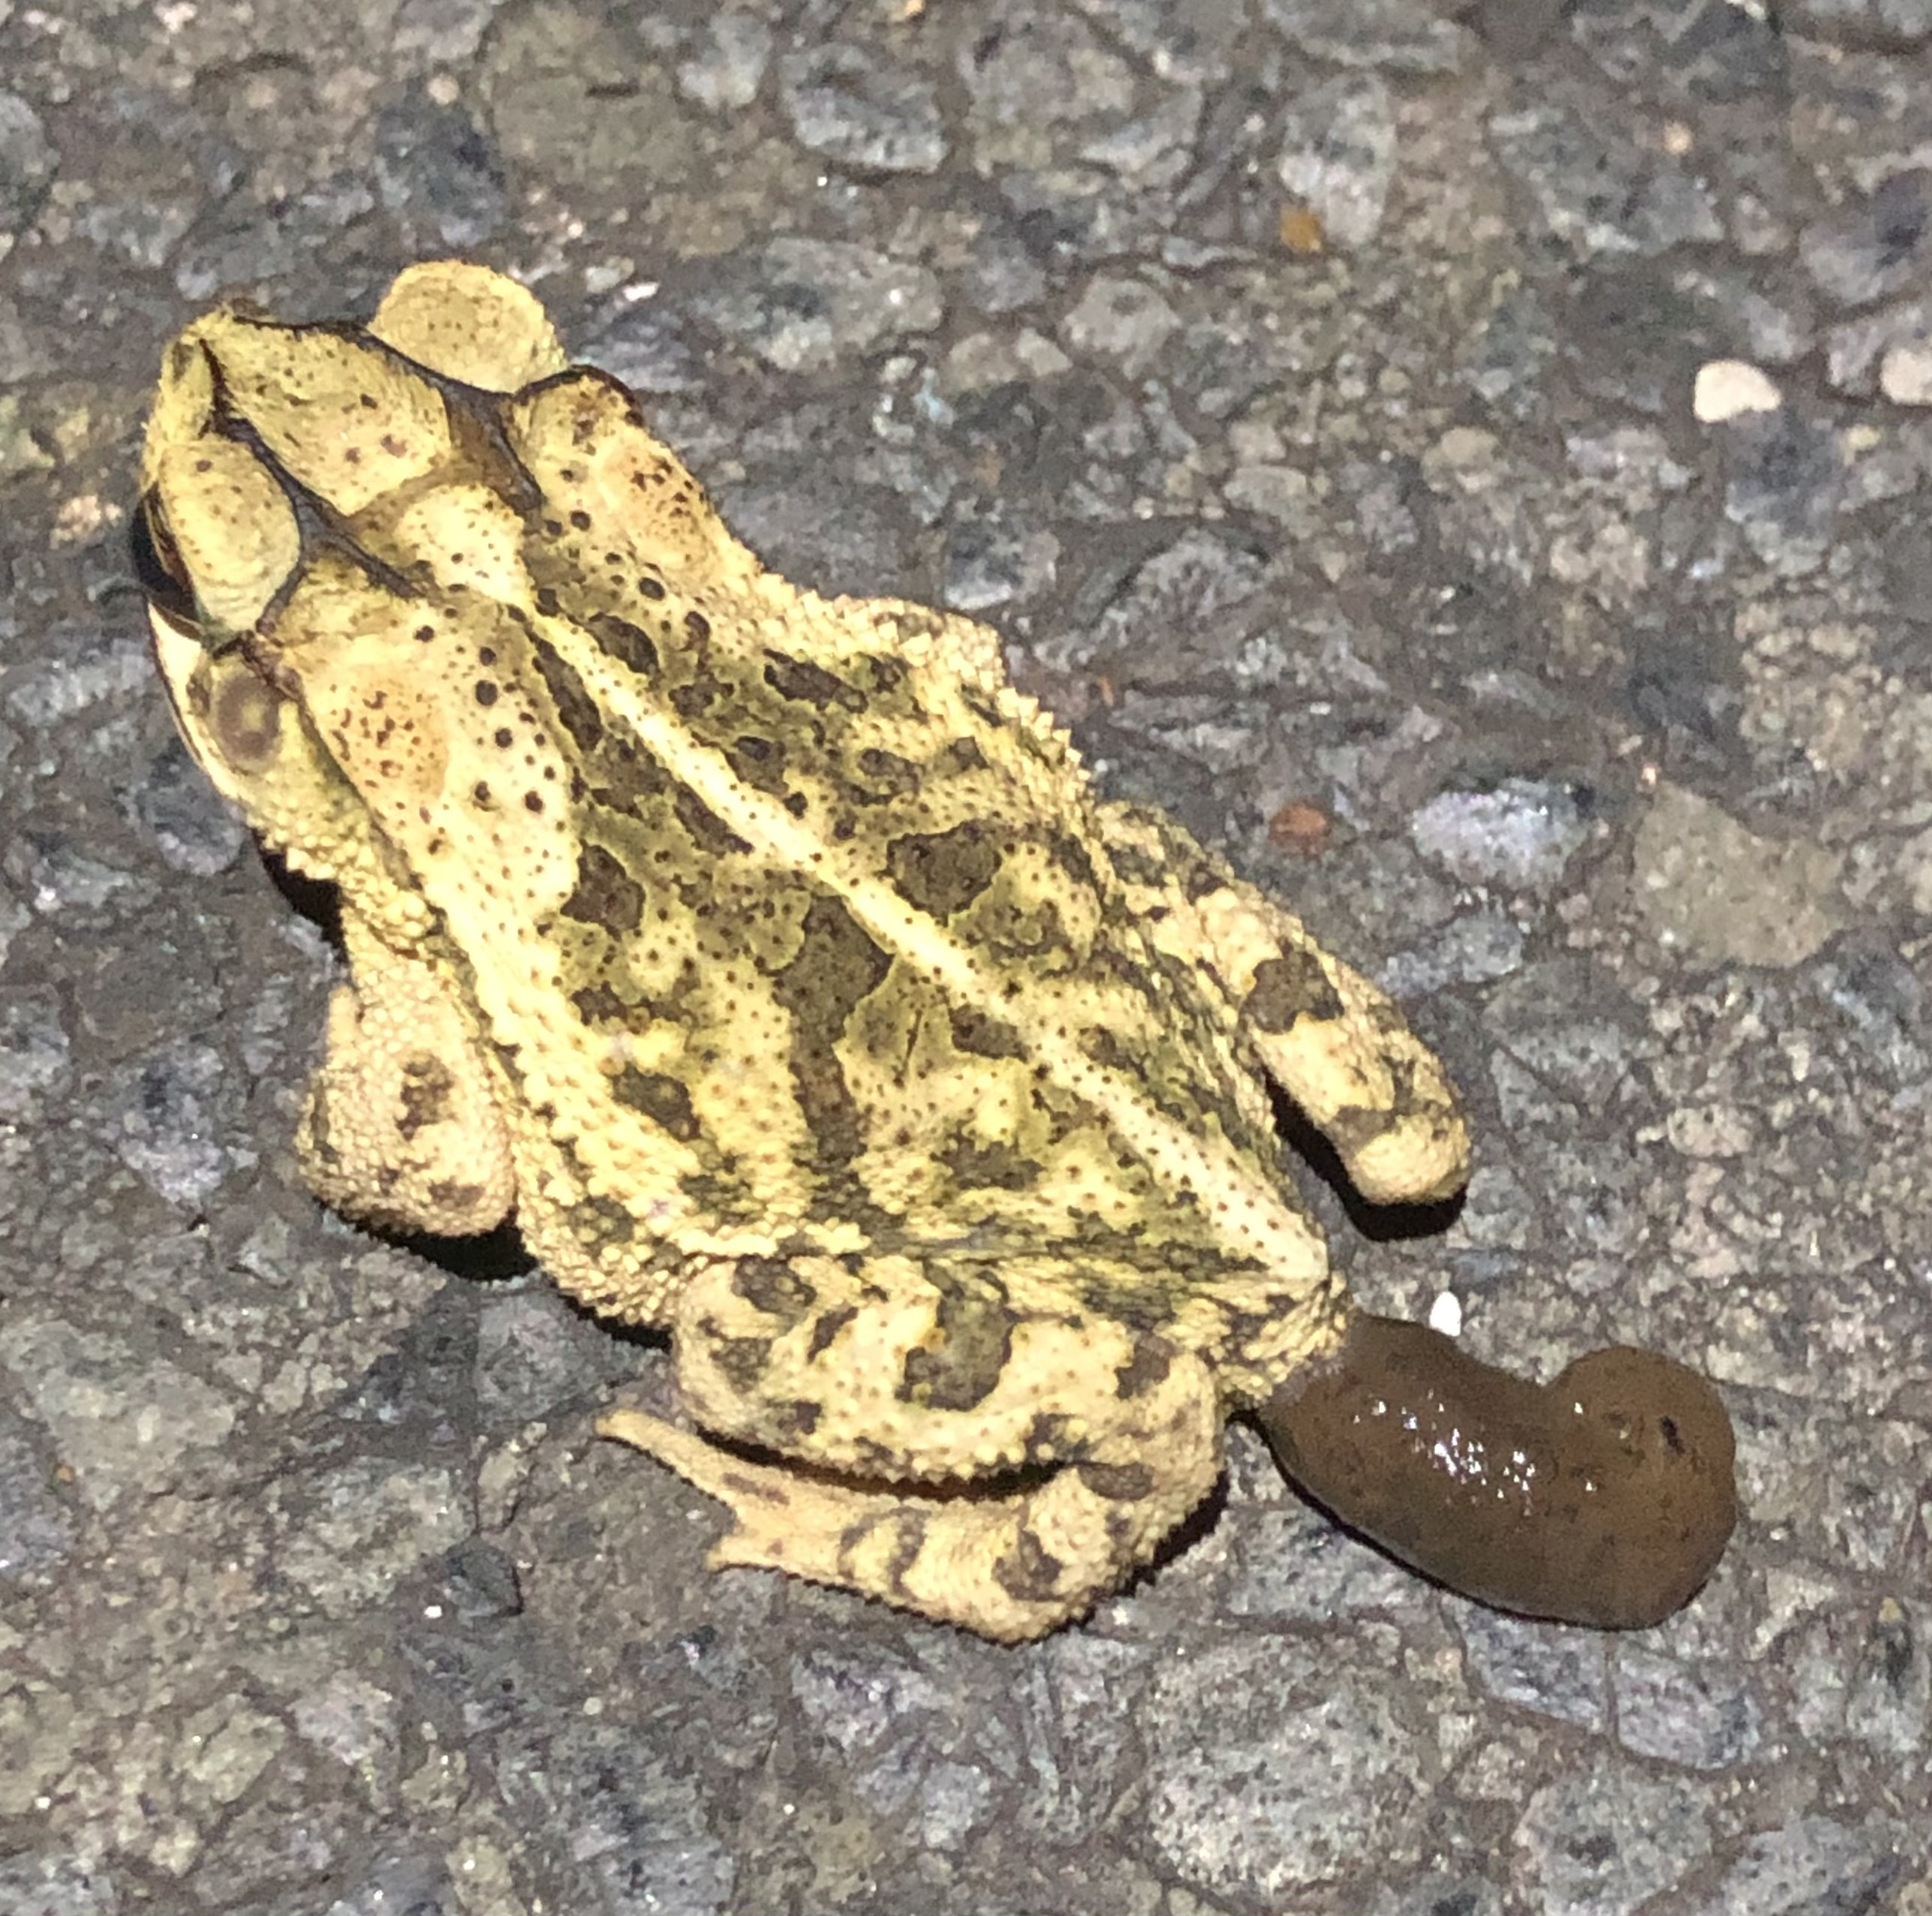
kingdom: Animalia
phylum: Chordata
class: Amphibia
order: Anura
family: Bufonidae
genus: Incilius
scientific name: Incilius nebulifer
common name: Gulf coast toad
